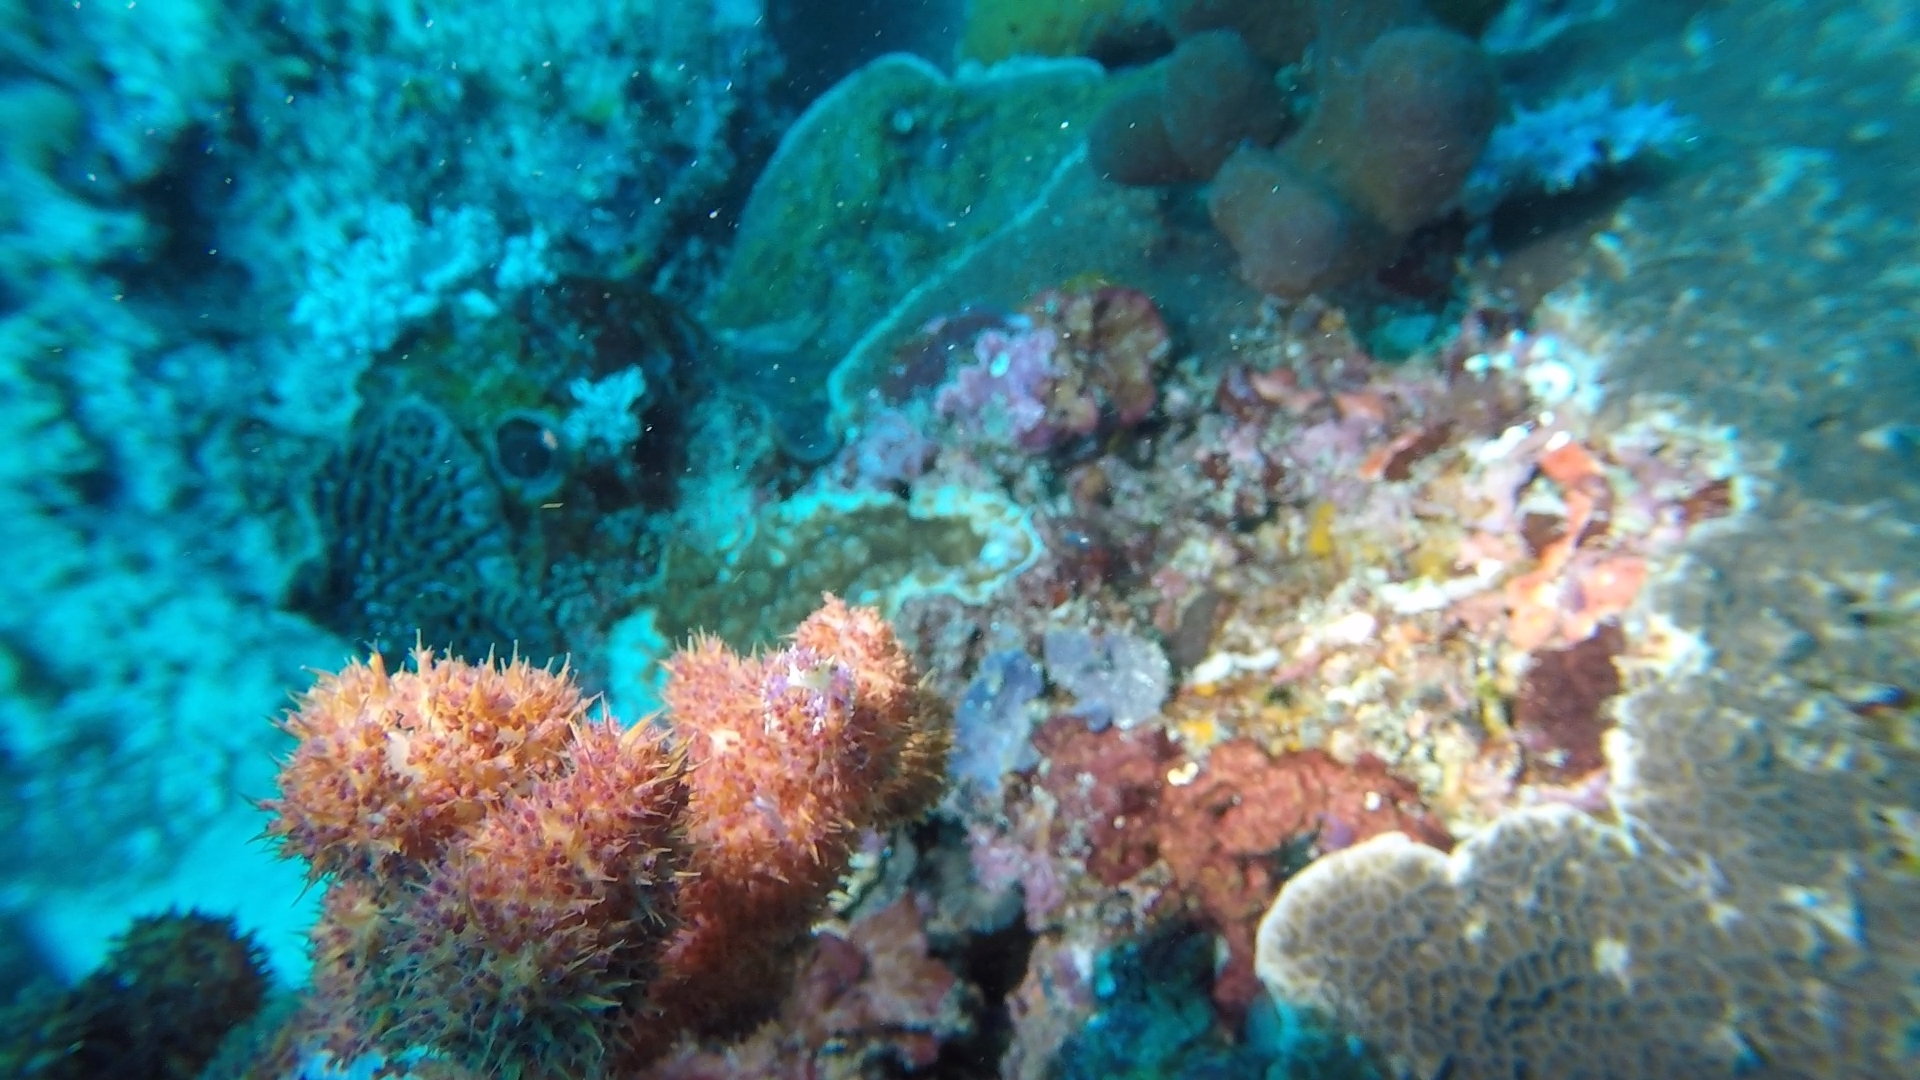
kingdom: Animalia
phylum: Arthropoda
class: Malacostraca
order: Decapoda
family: Epialtidae
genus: Hoplophrys
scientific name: Hoplophrys oatesii
